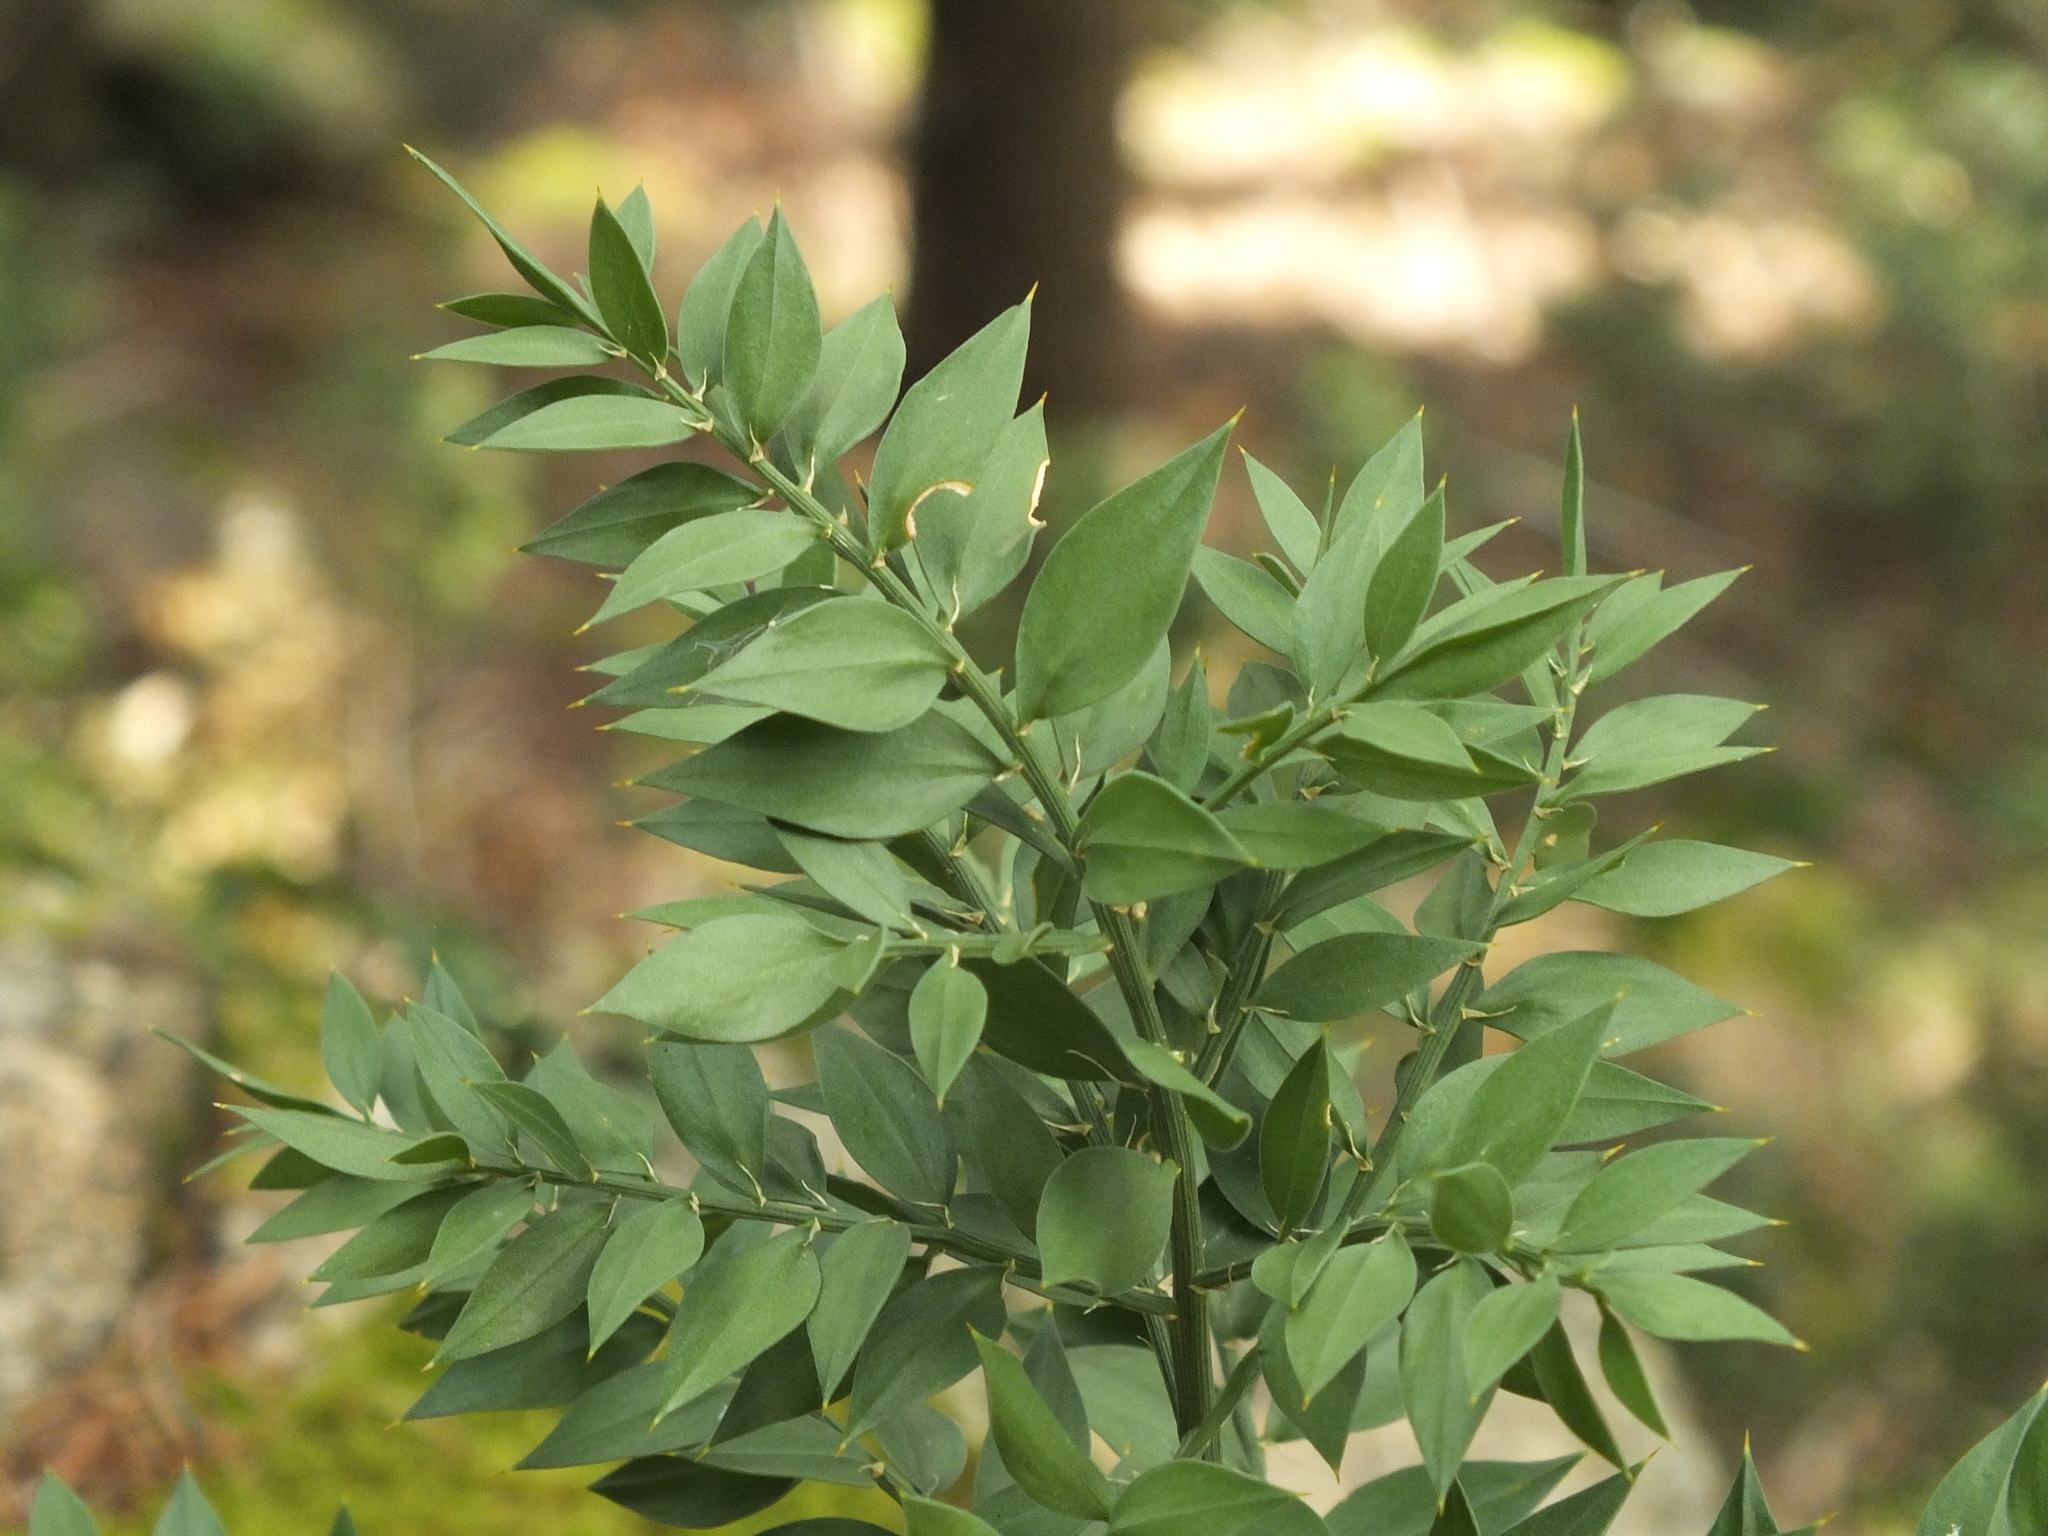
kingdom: Plantae
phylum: Tracheophyta
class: Liliopsida
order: Asparagales
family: Asparagaceae
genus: Ruscus
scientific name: Ruscus aculeatus
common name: Butcher's-broom
